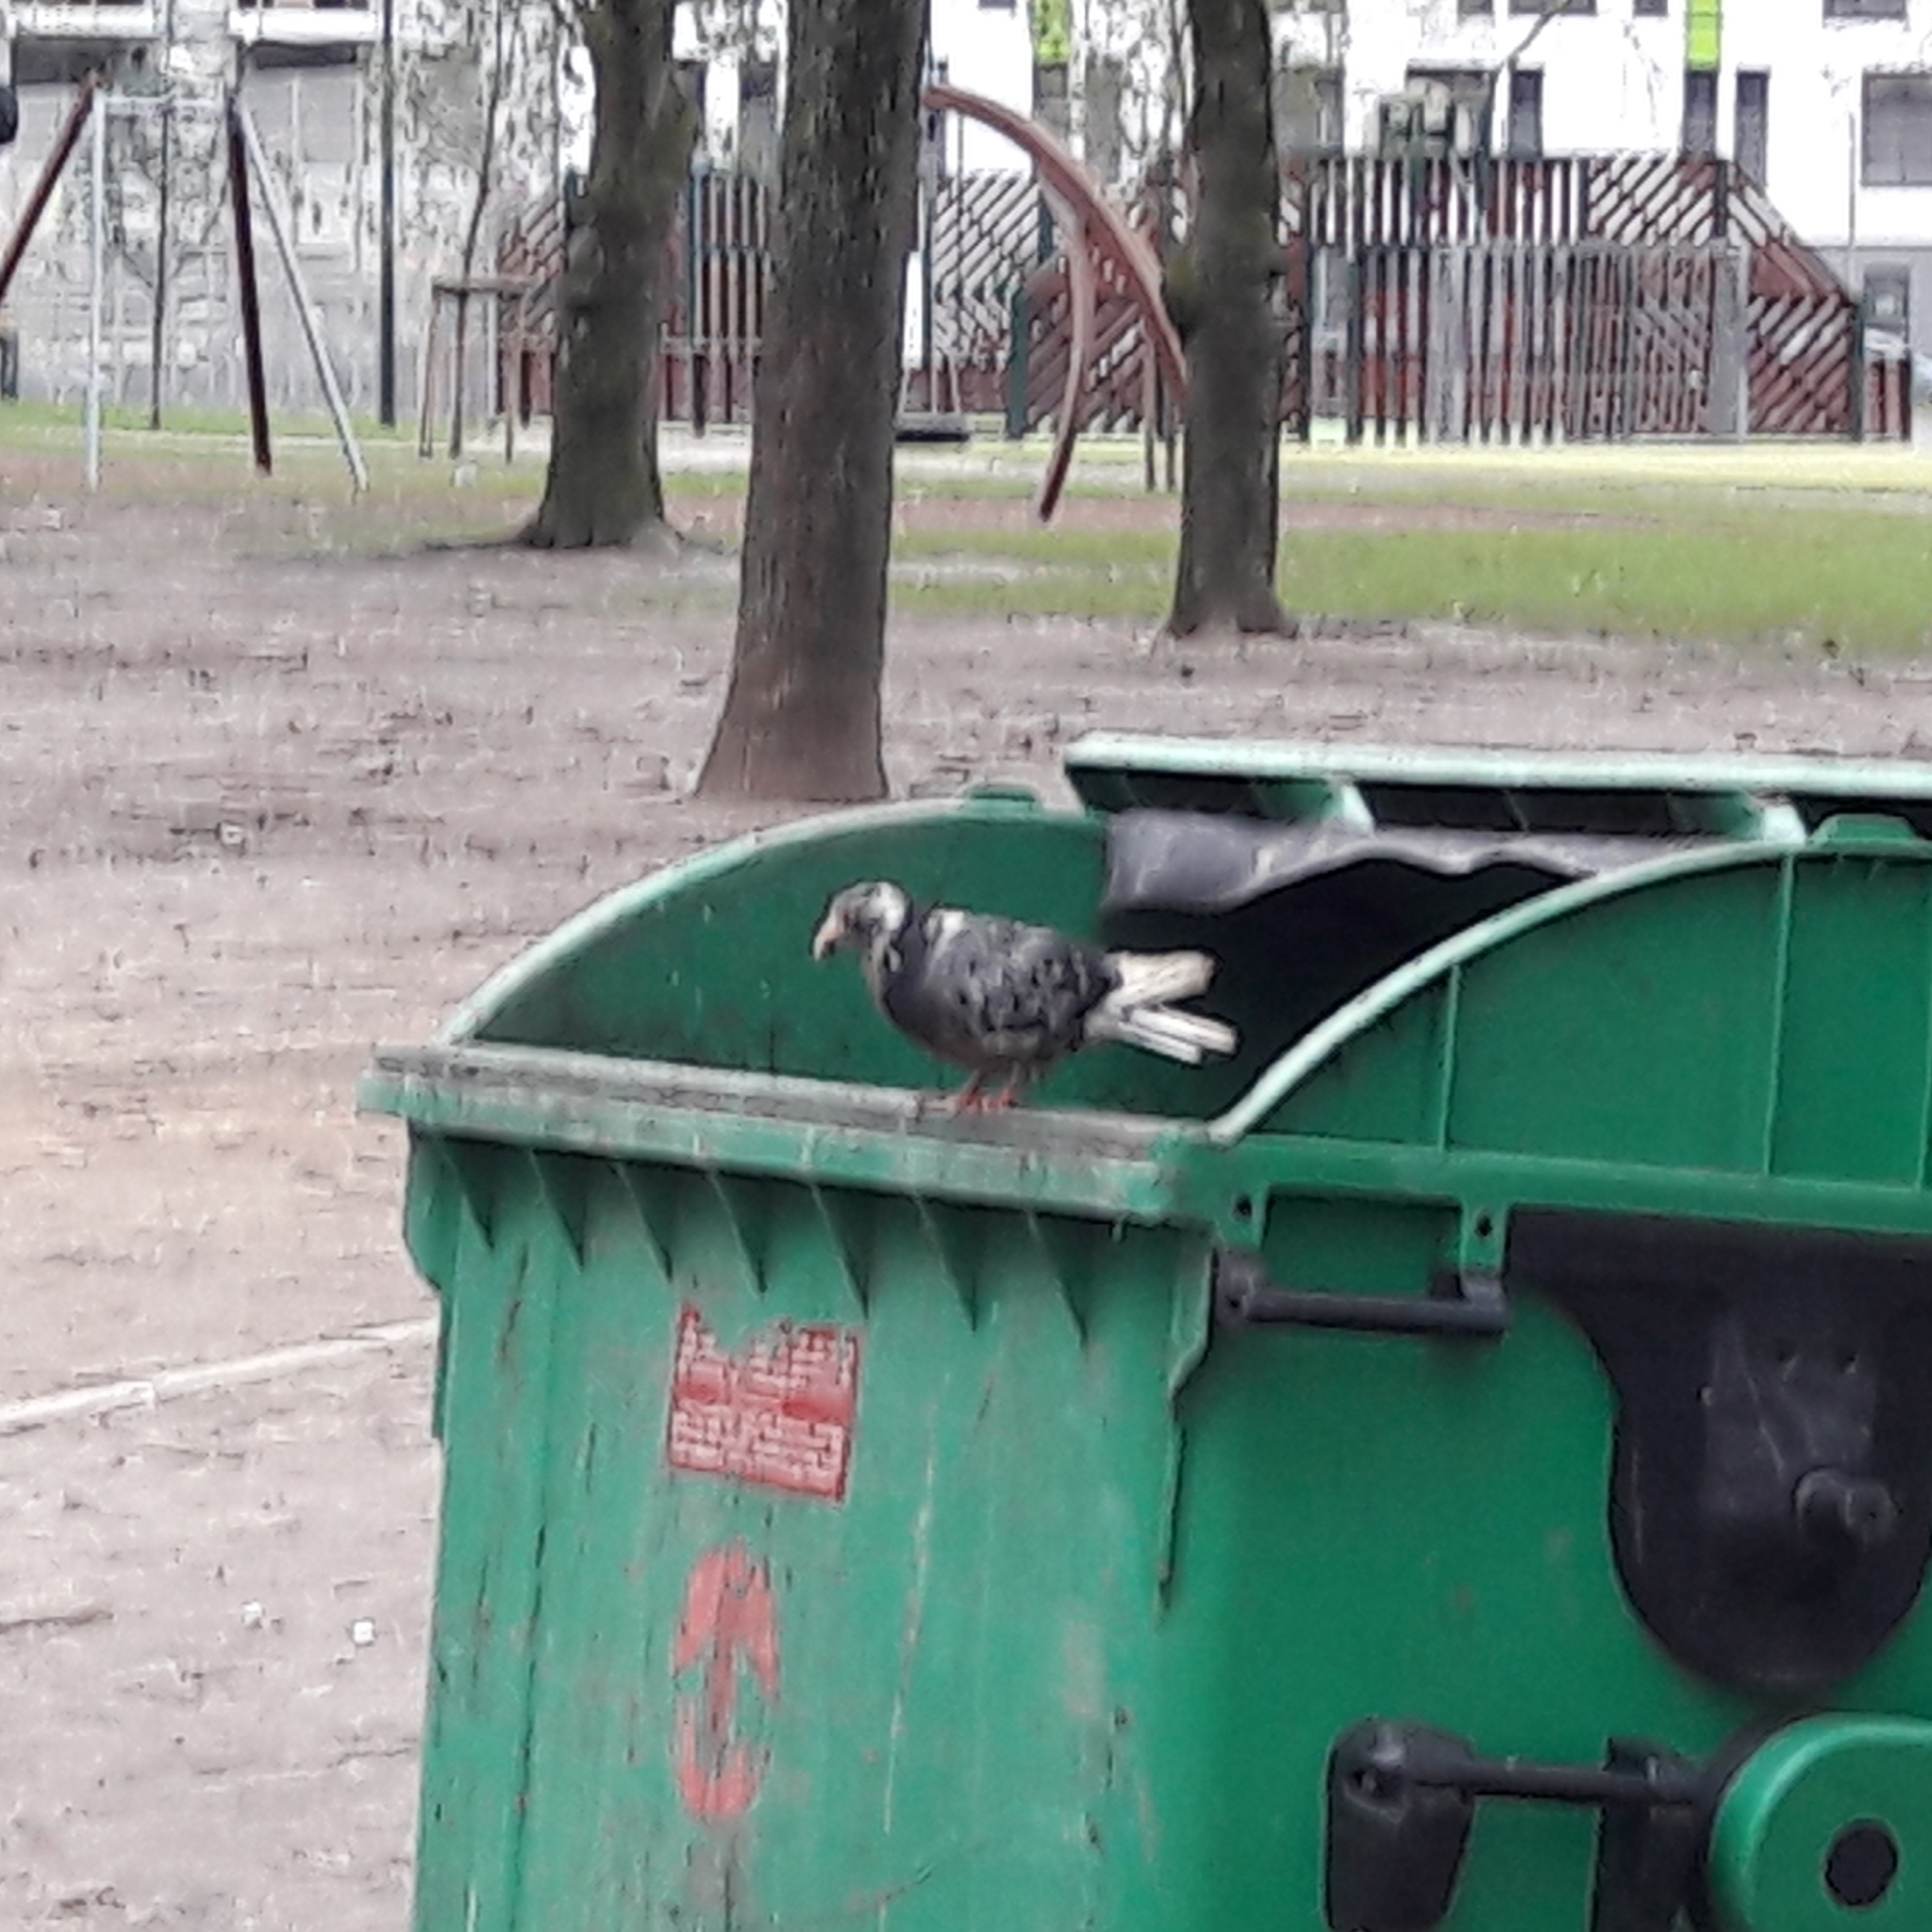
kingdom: Animalia
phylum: Chordata
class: Aves
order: Columbiformes
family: Columbidae
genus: Columba
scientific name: Columba livia
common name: Rock pigeon
